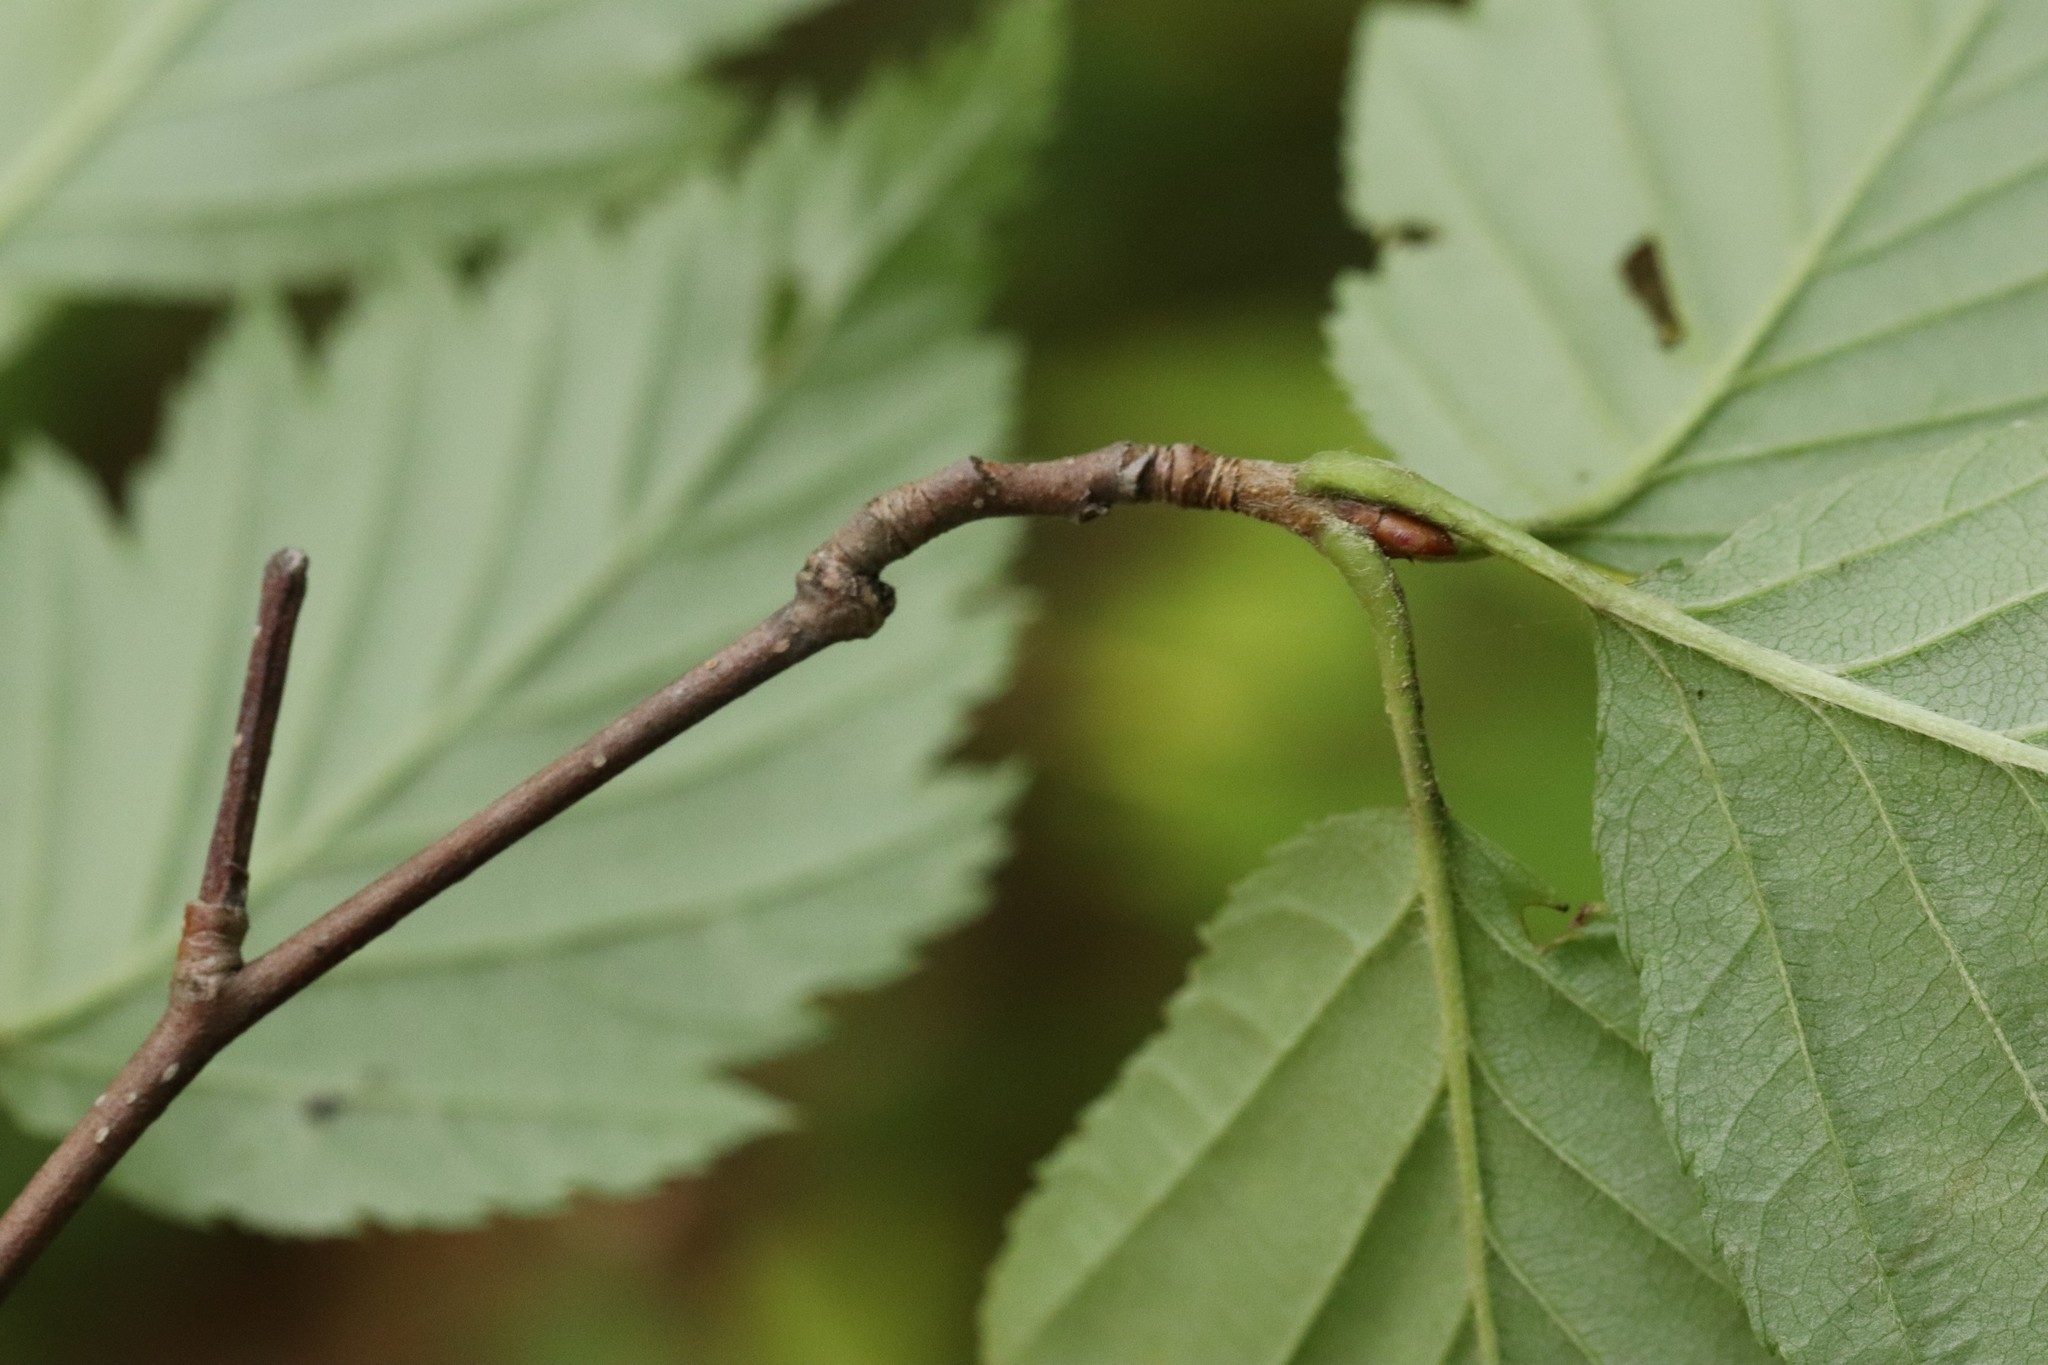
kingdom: Plantae
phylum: Tracheophyta
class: Magnoliopsida
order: Rosales
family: Rosaceae
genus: Sorbus
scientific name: Sorbus alnifolia
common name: Mountain-ash
